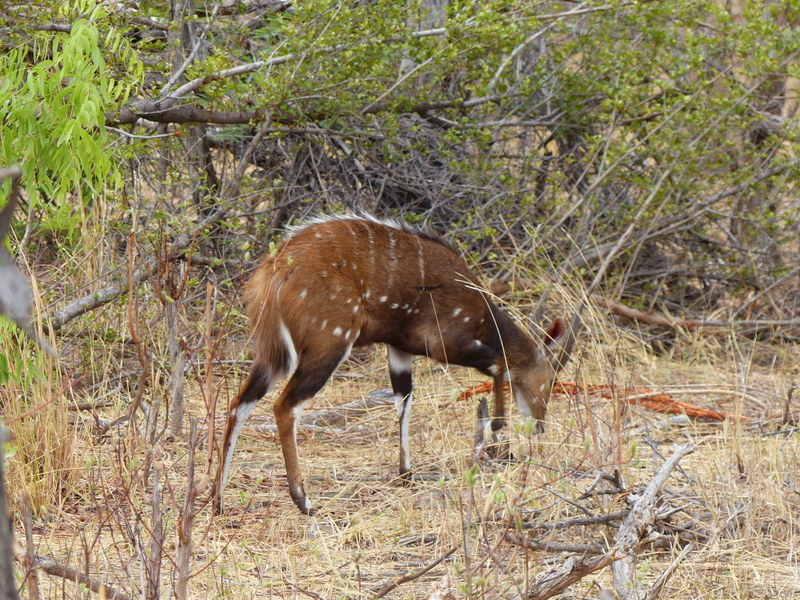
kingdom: Animalia
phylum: Chordata
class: Mammalia
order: Artiodactyla
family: Bovidae
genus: Tragelaphus
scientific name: Tragelaphus scriptus
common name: Bushbuck
